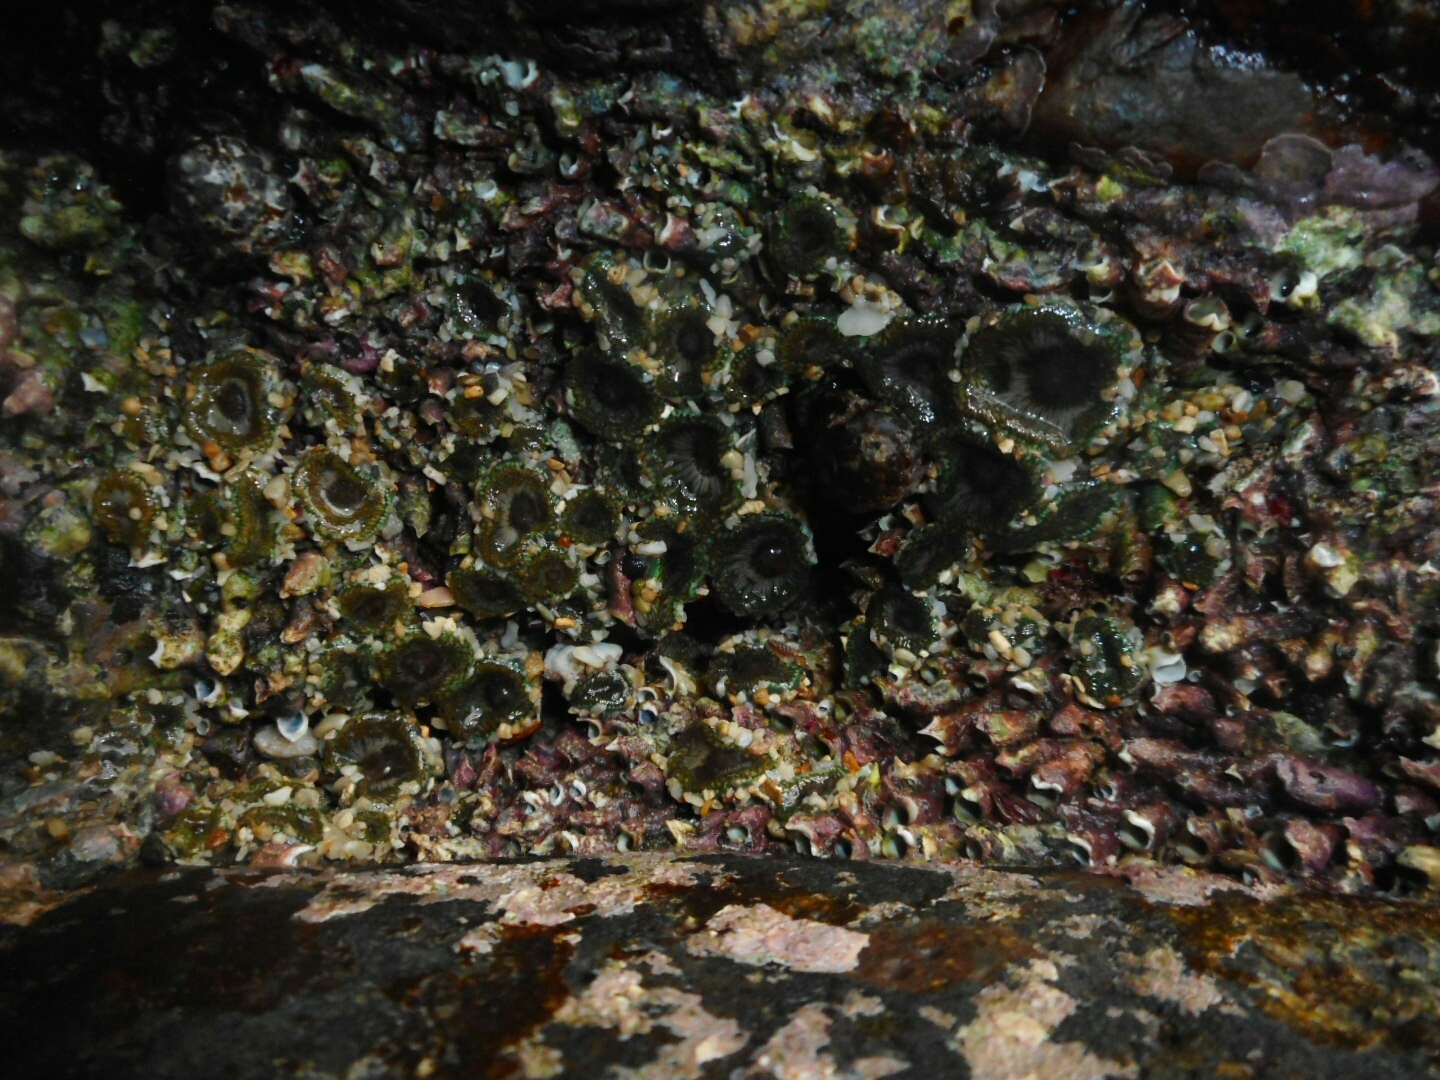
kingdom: Animalia
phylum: Cnidaria
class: Anthozoa
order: Actiniaria
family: Actiniidae
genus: Gyractis
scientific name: Gyractis sesere
